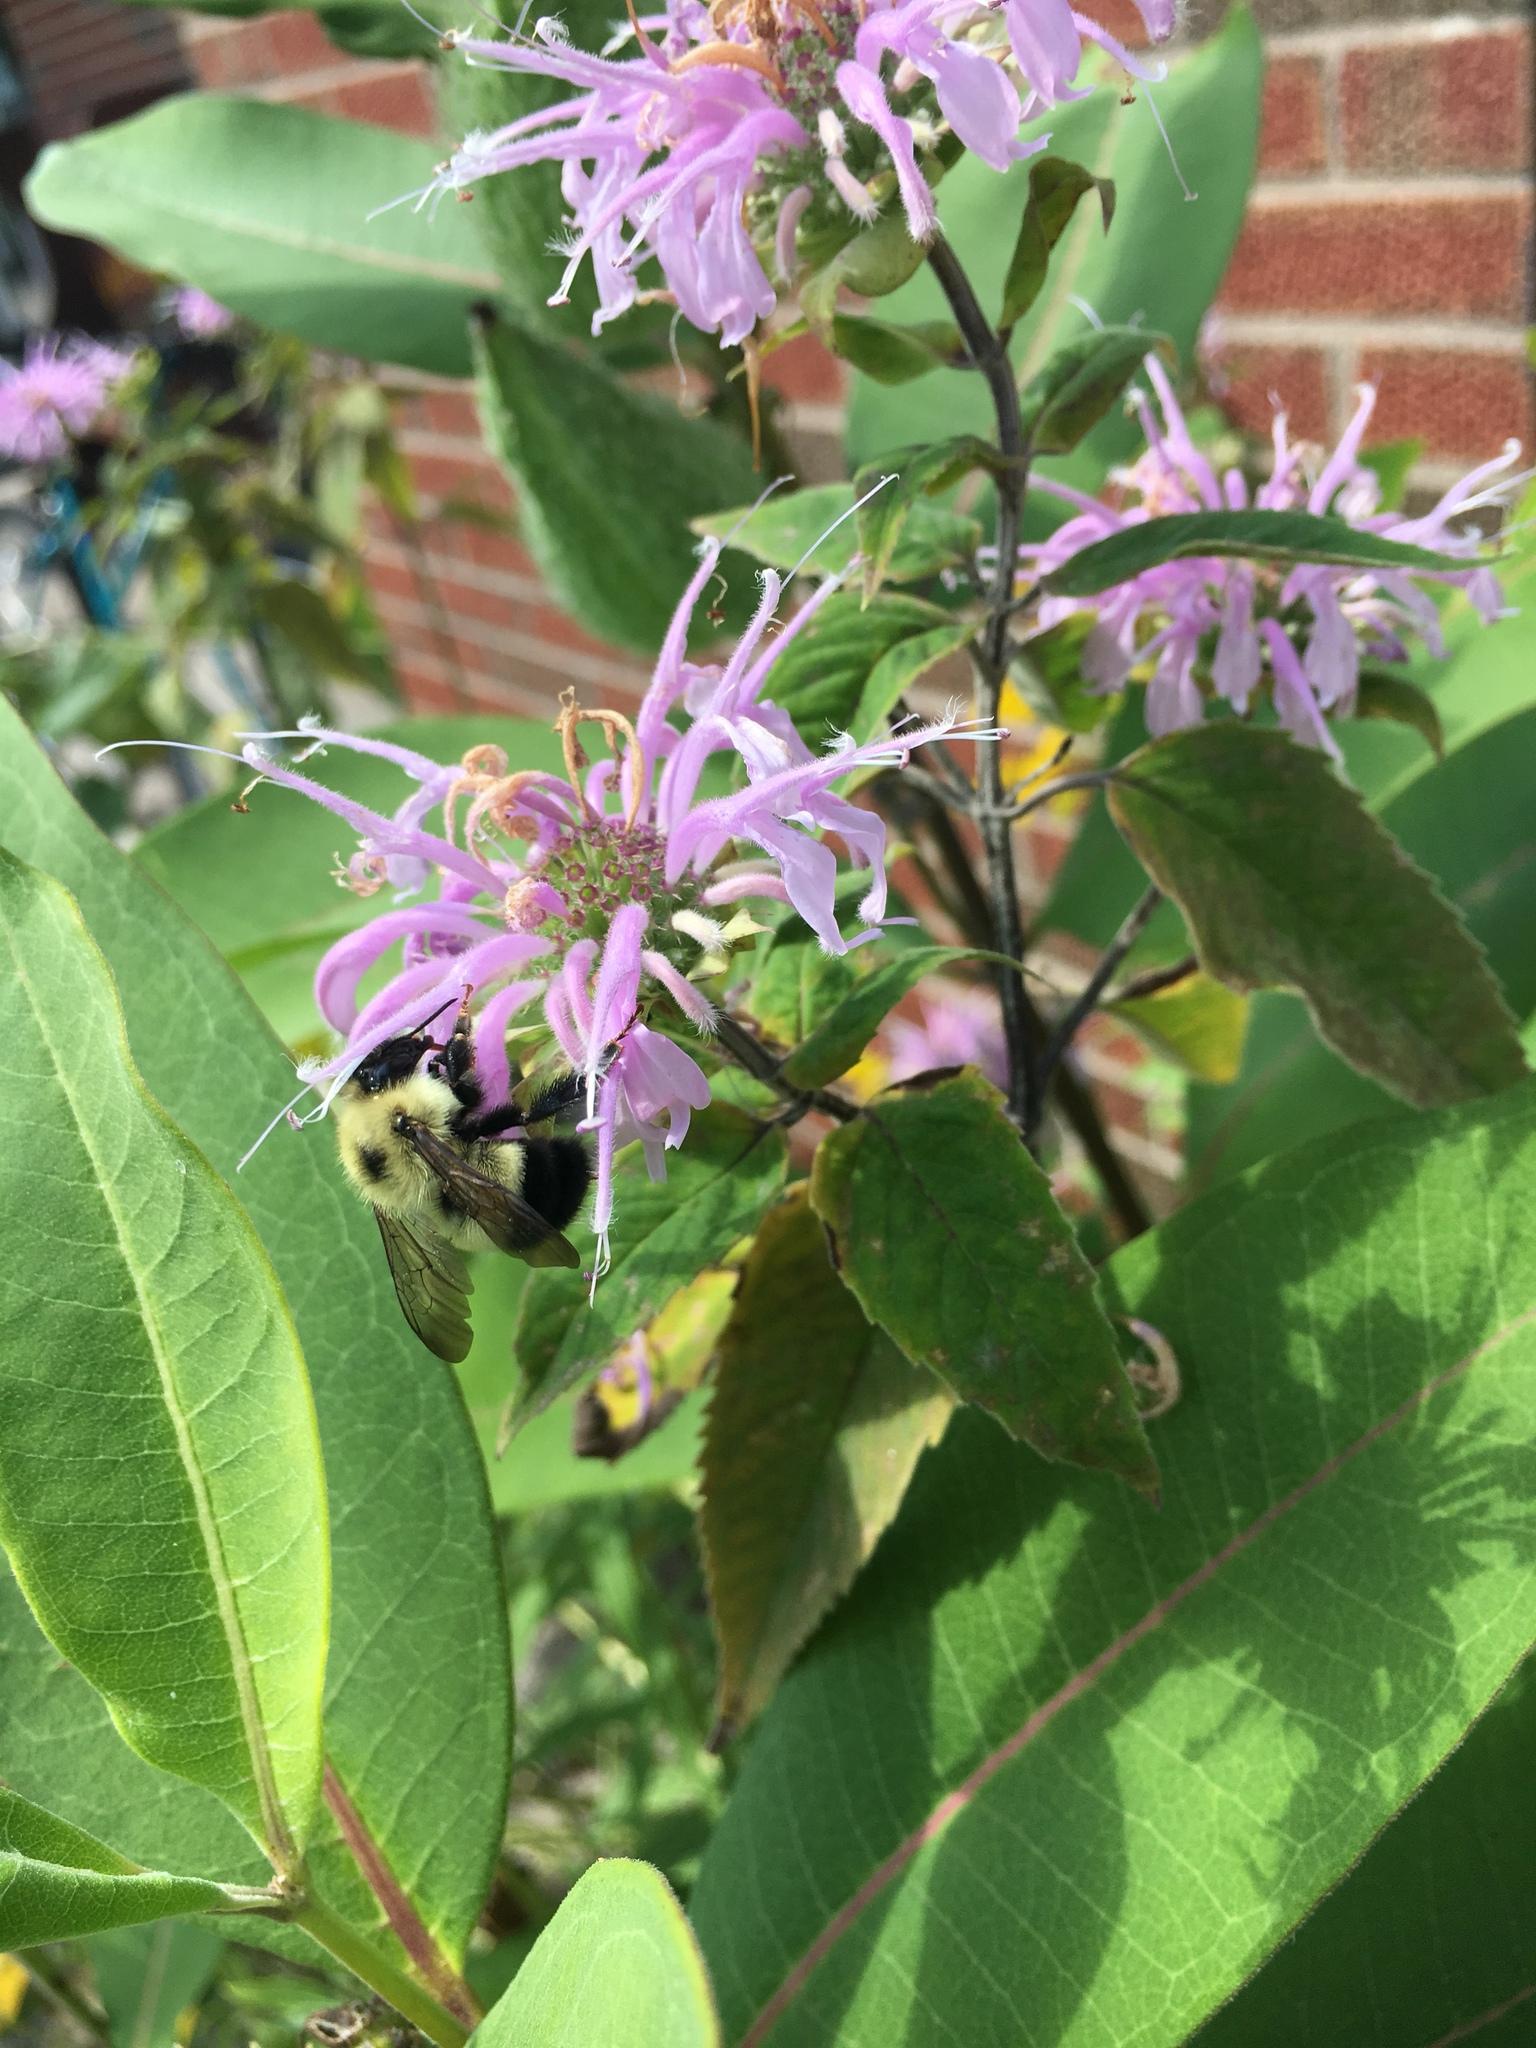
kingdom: Animalia
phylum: Arthropoda
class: Insecta
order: Hymenoptera
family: Apidae
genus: Bombus
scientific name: Bombus vagans
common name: Half-black bumble bee
